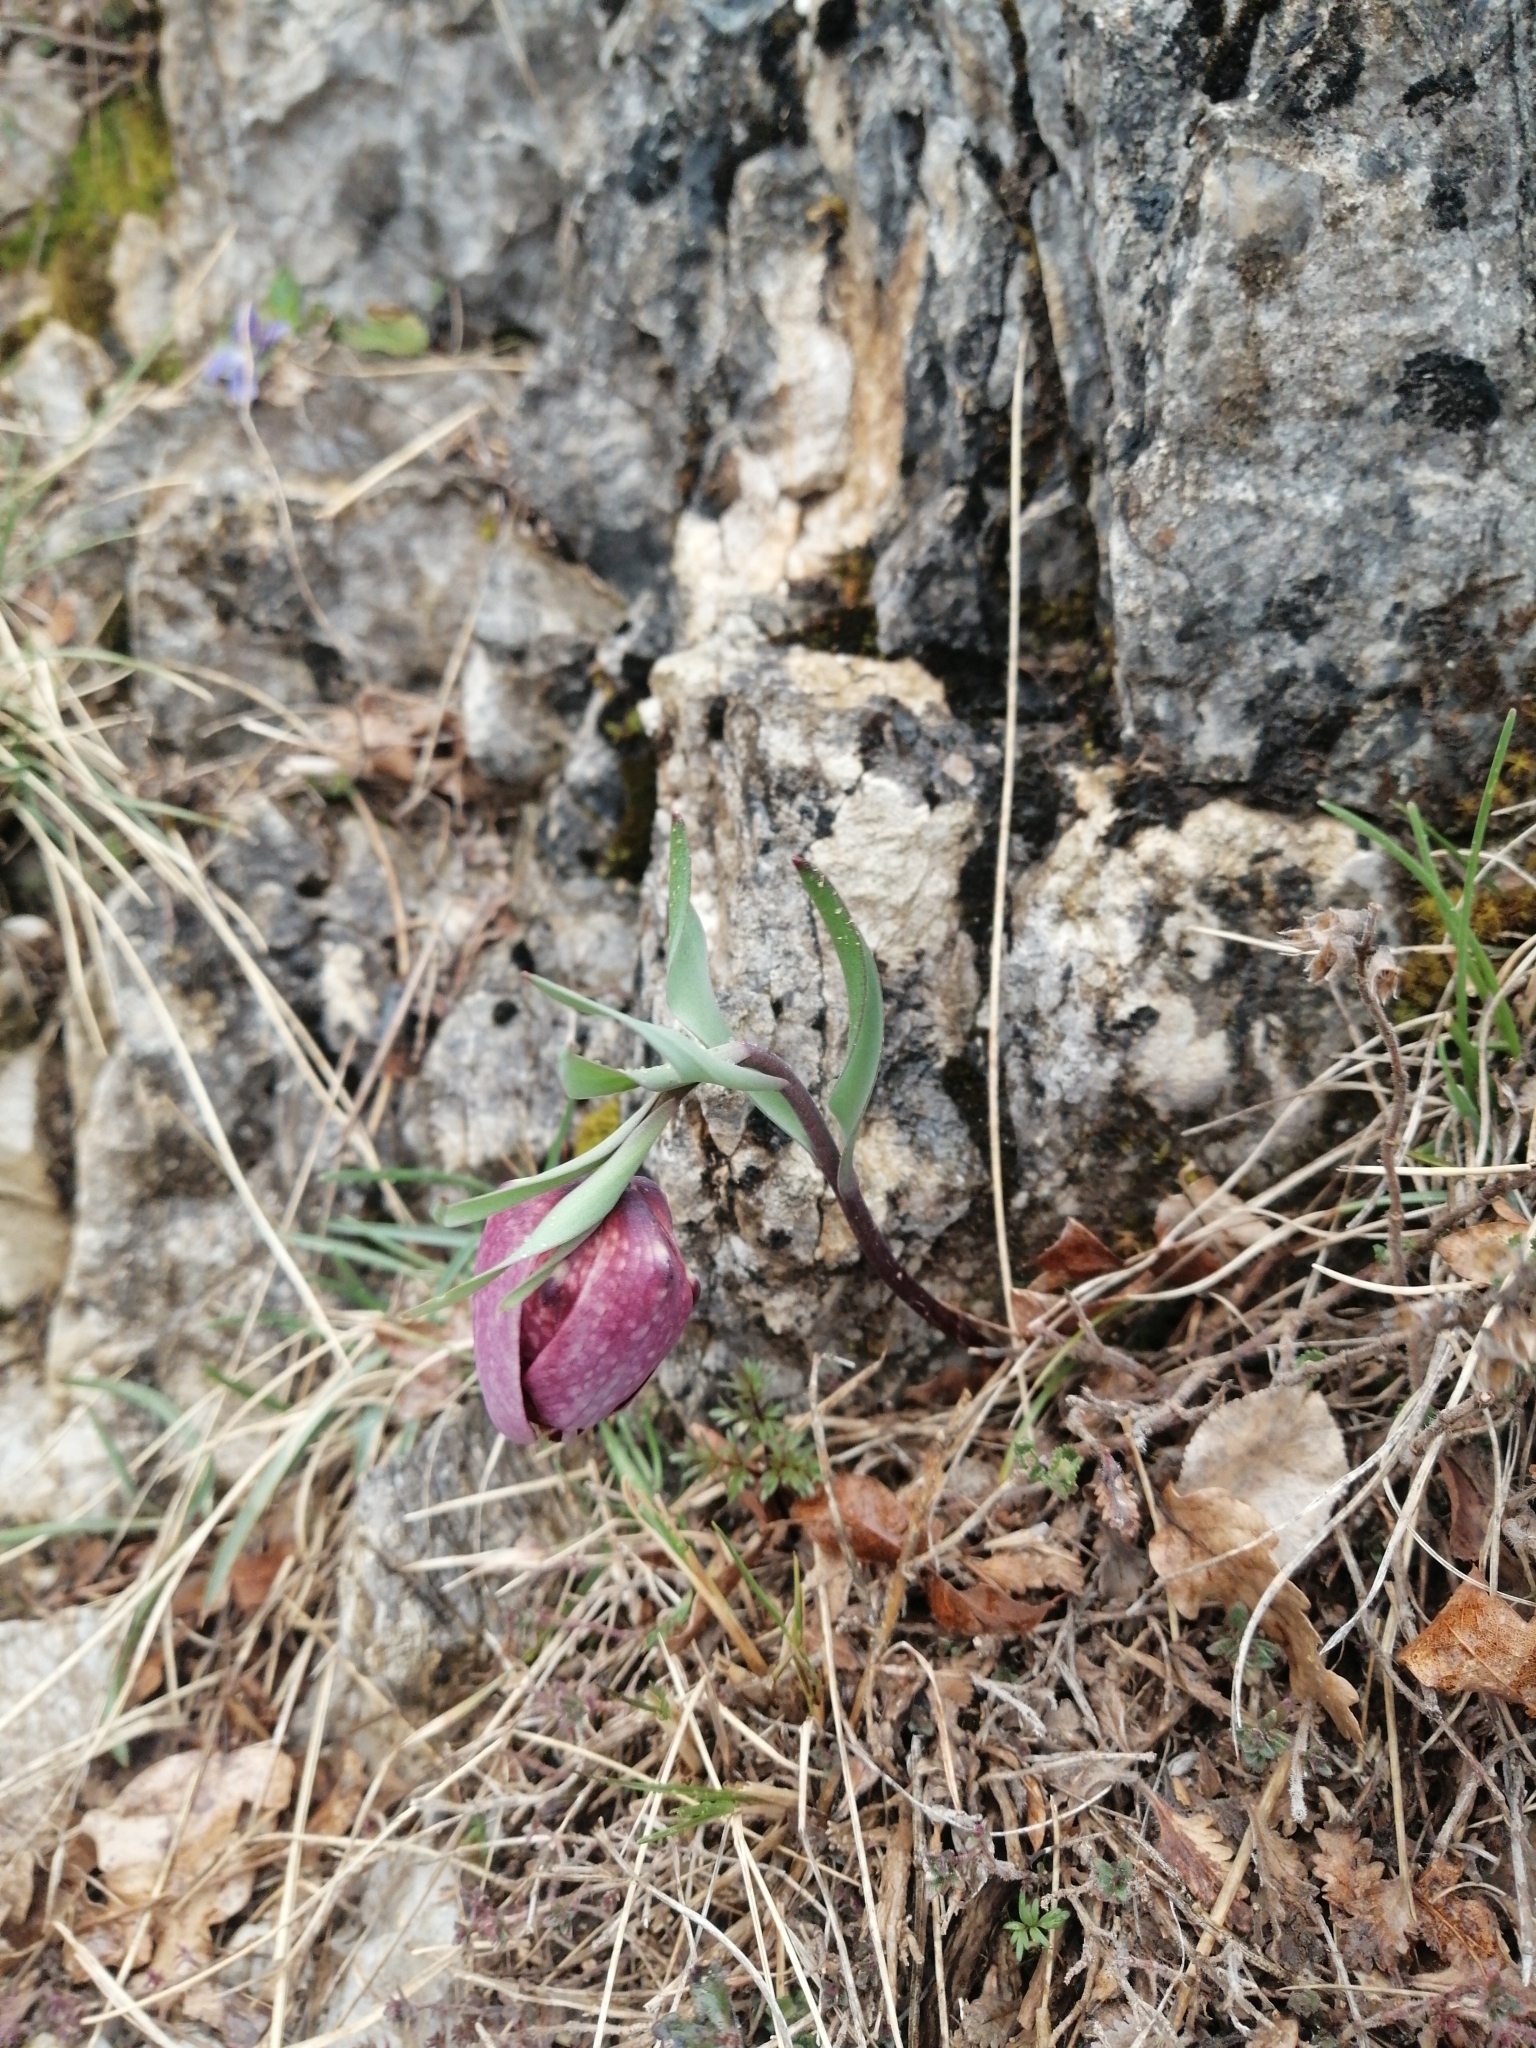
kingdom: Plantae
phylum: Tracheophyta
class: Liliopsida
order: Liliales
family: Liliaceae
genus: Fritillaria
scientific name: Fritillaria tubaeformis
